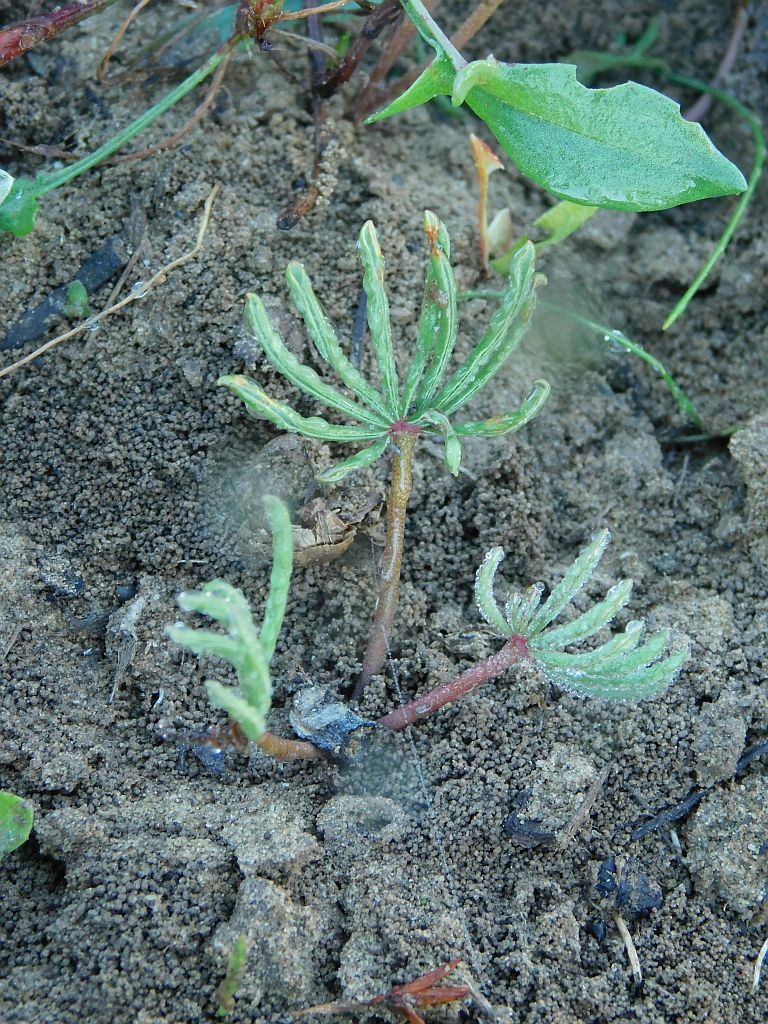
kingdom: Plantae
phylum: Tracheophyta
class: Magnoliopsida
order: Oxalidales
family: Oxalidaceae
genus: Oxalis
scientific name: Oxalis flava
